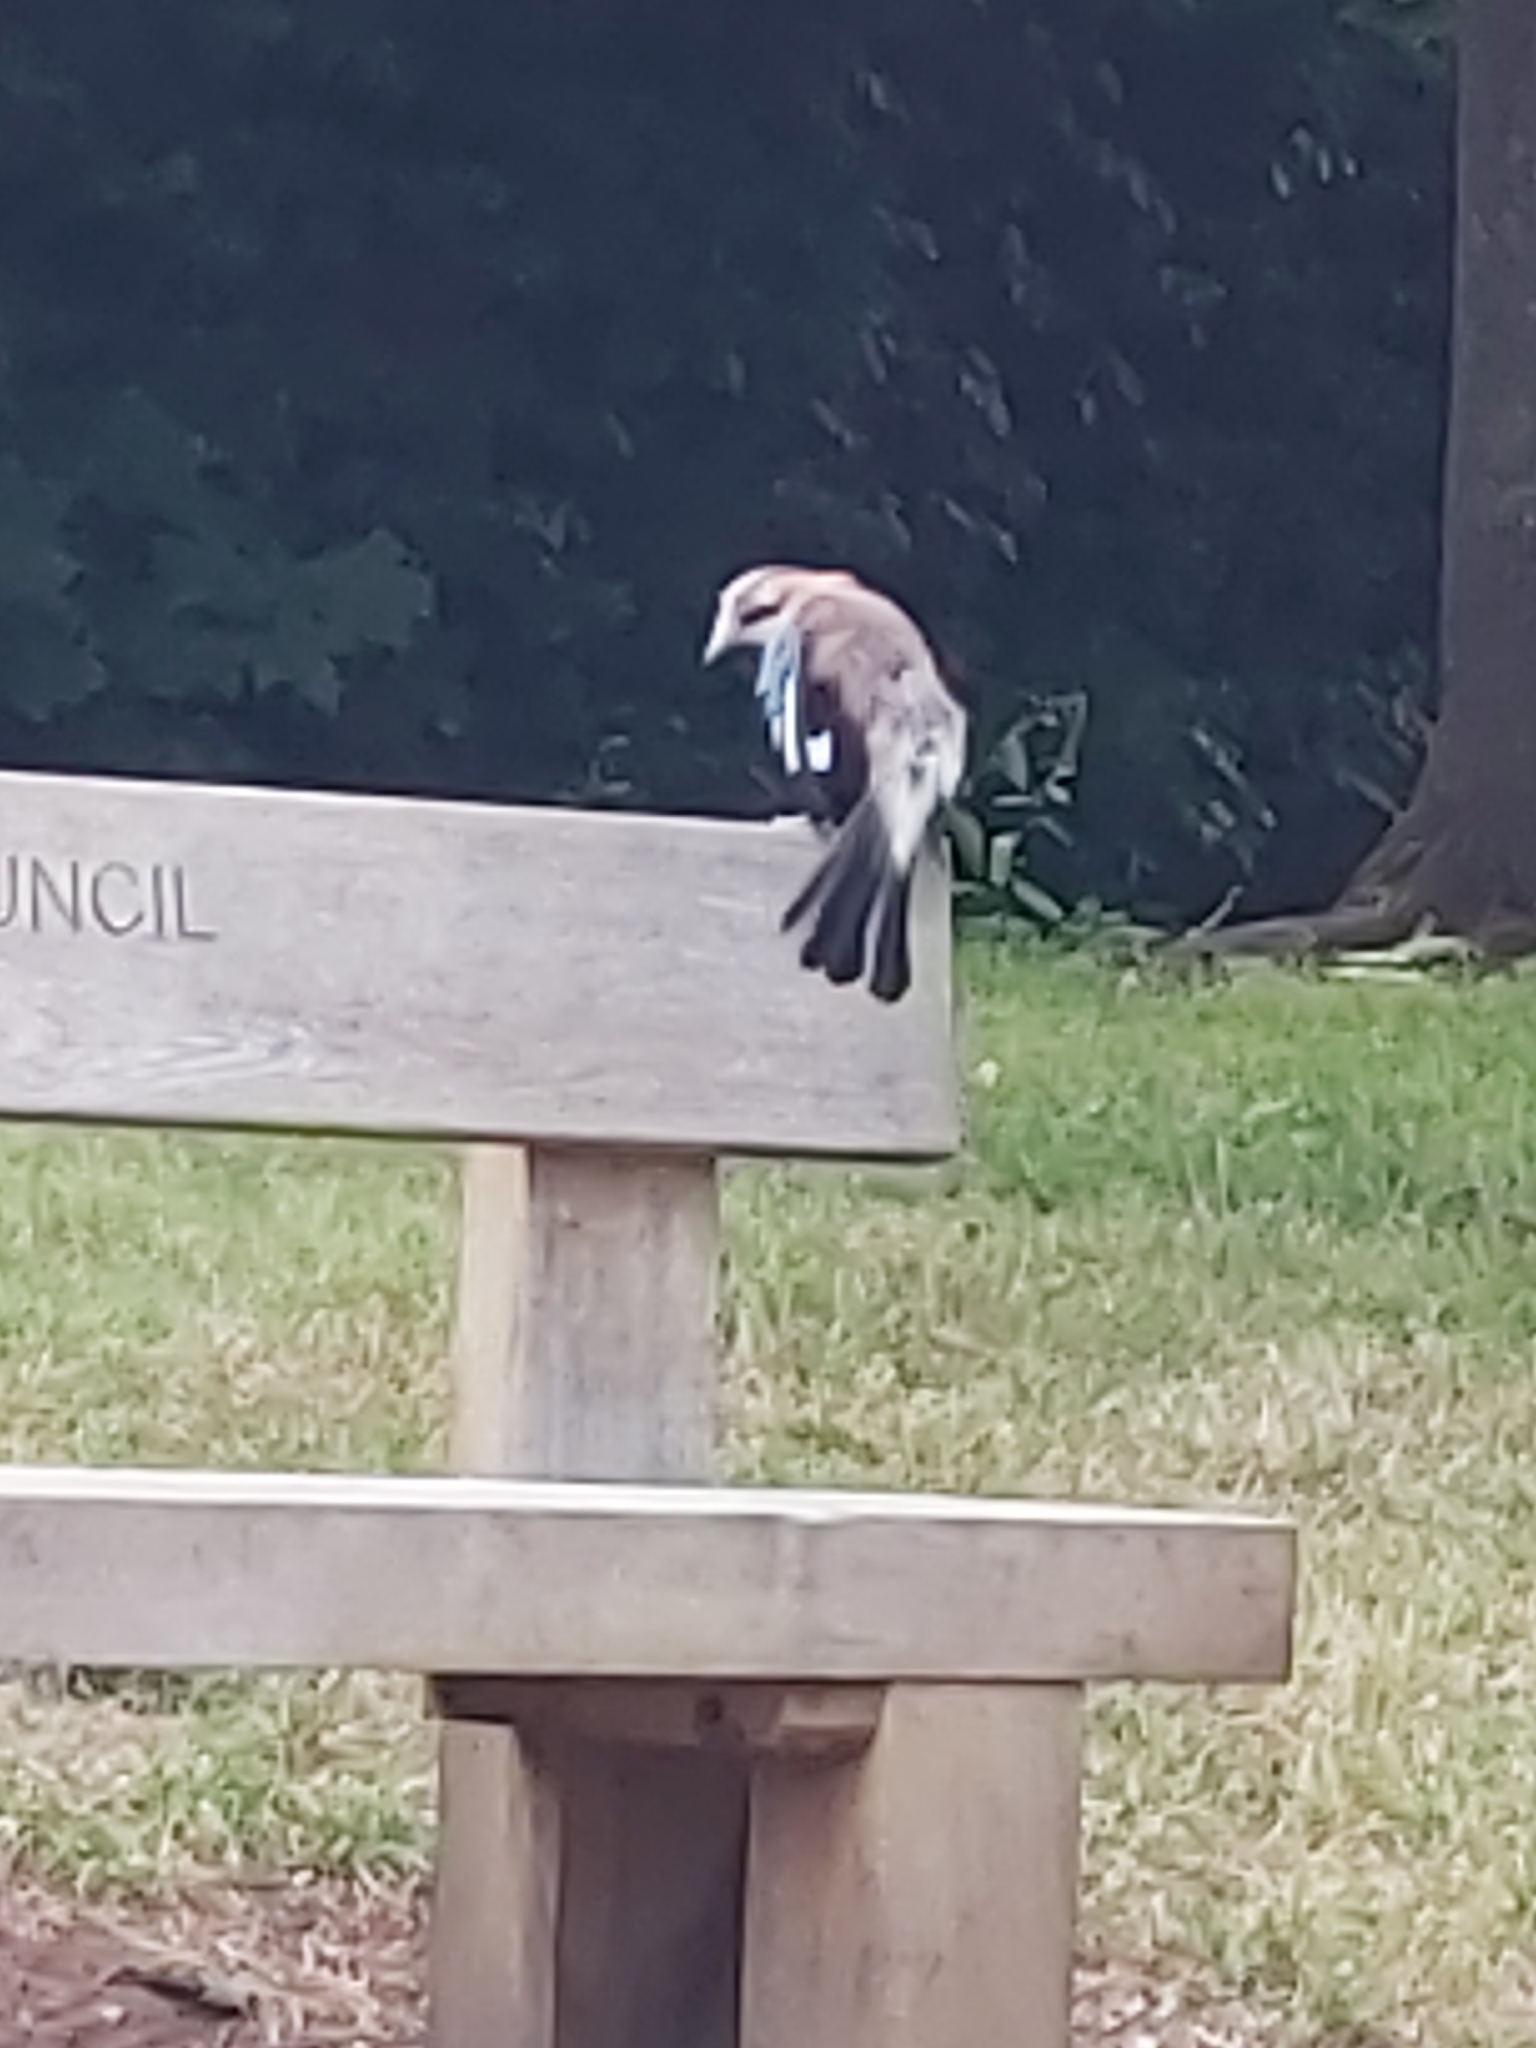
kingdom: Animalia
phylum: Chordata
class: Aves
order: Passeriformes
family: Corvidae
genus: Garrulus
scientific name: Garrulus glandarius
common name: Eurasian jay
